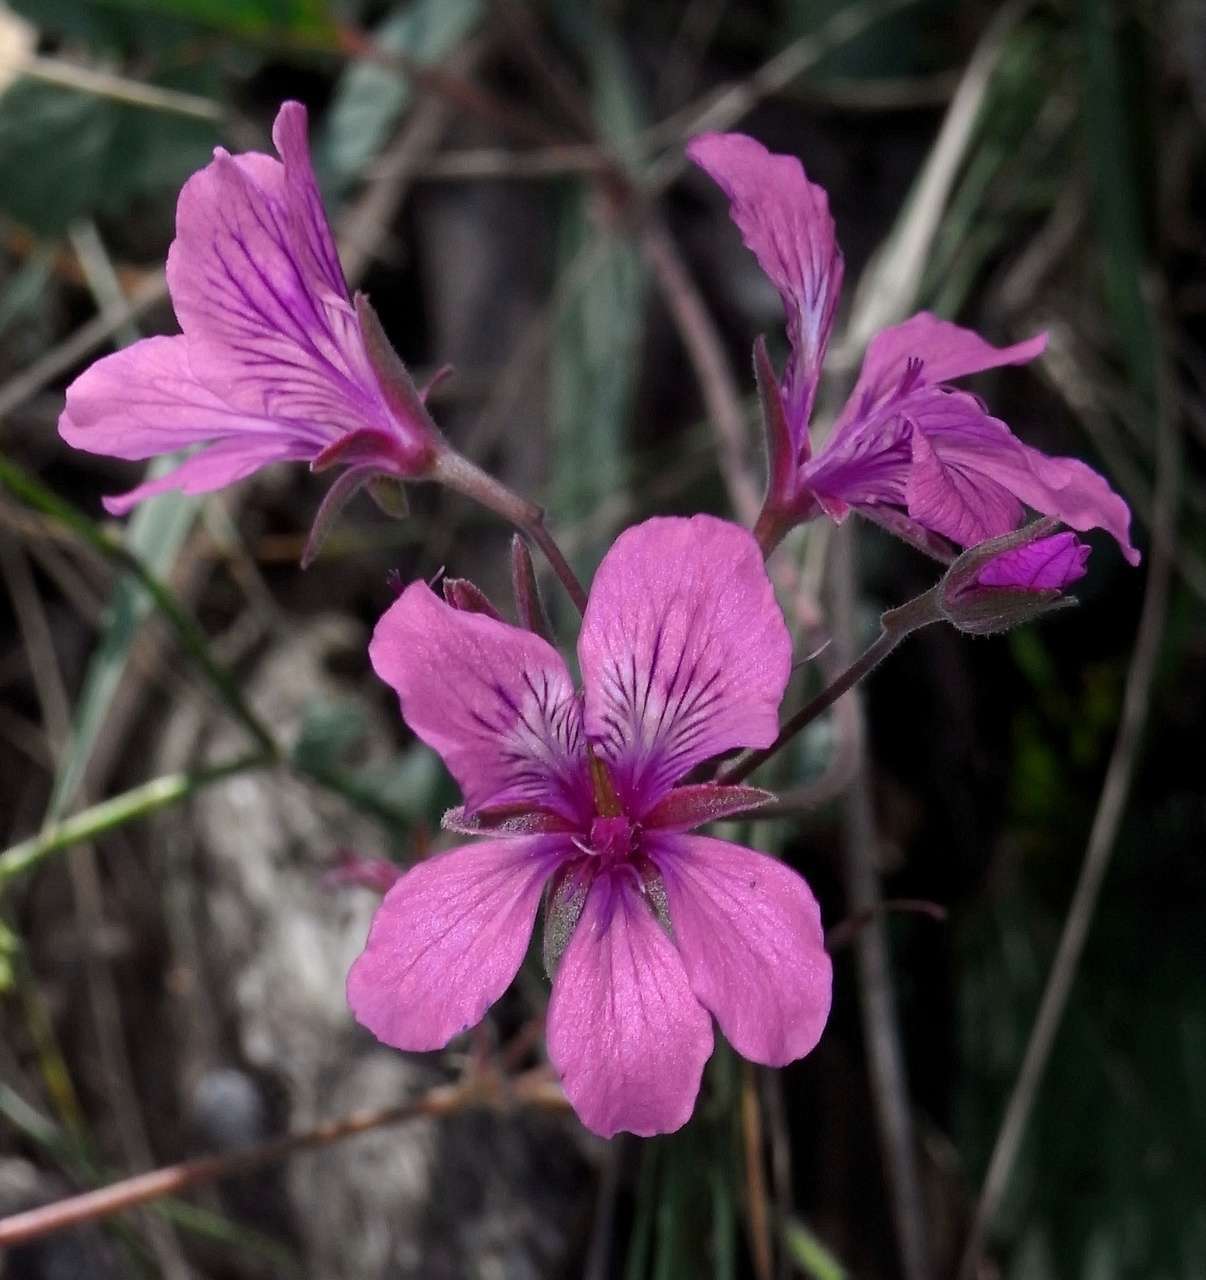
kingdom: Plantae
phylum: Tracheophyta
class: Magnoliopsida
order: Geraniales
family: Geraniaceae
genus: Pelargonium
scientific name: Pelargonium rodneyanum
